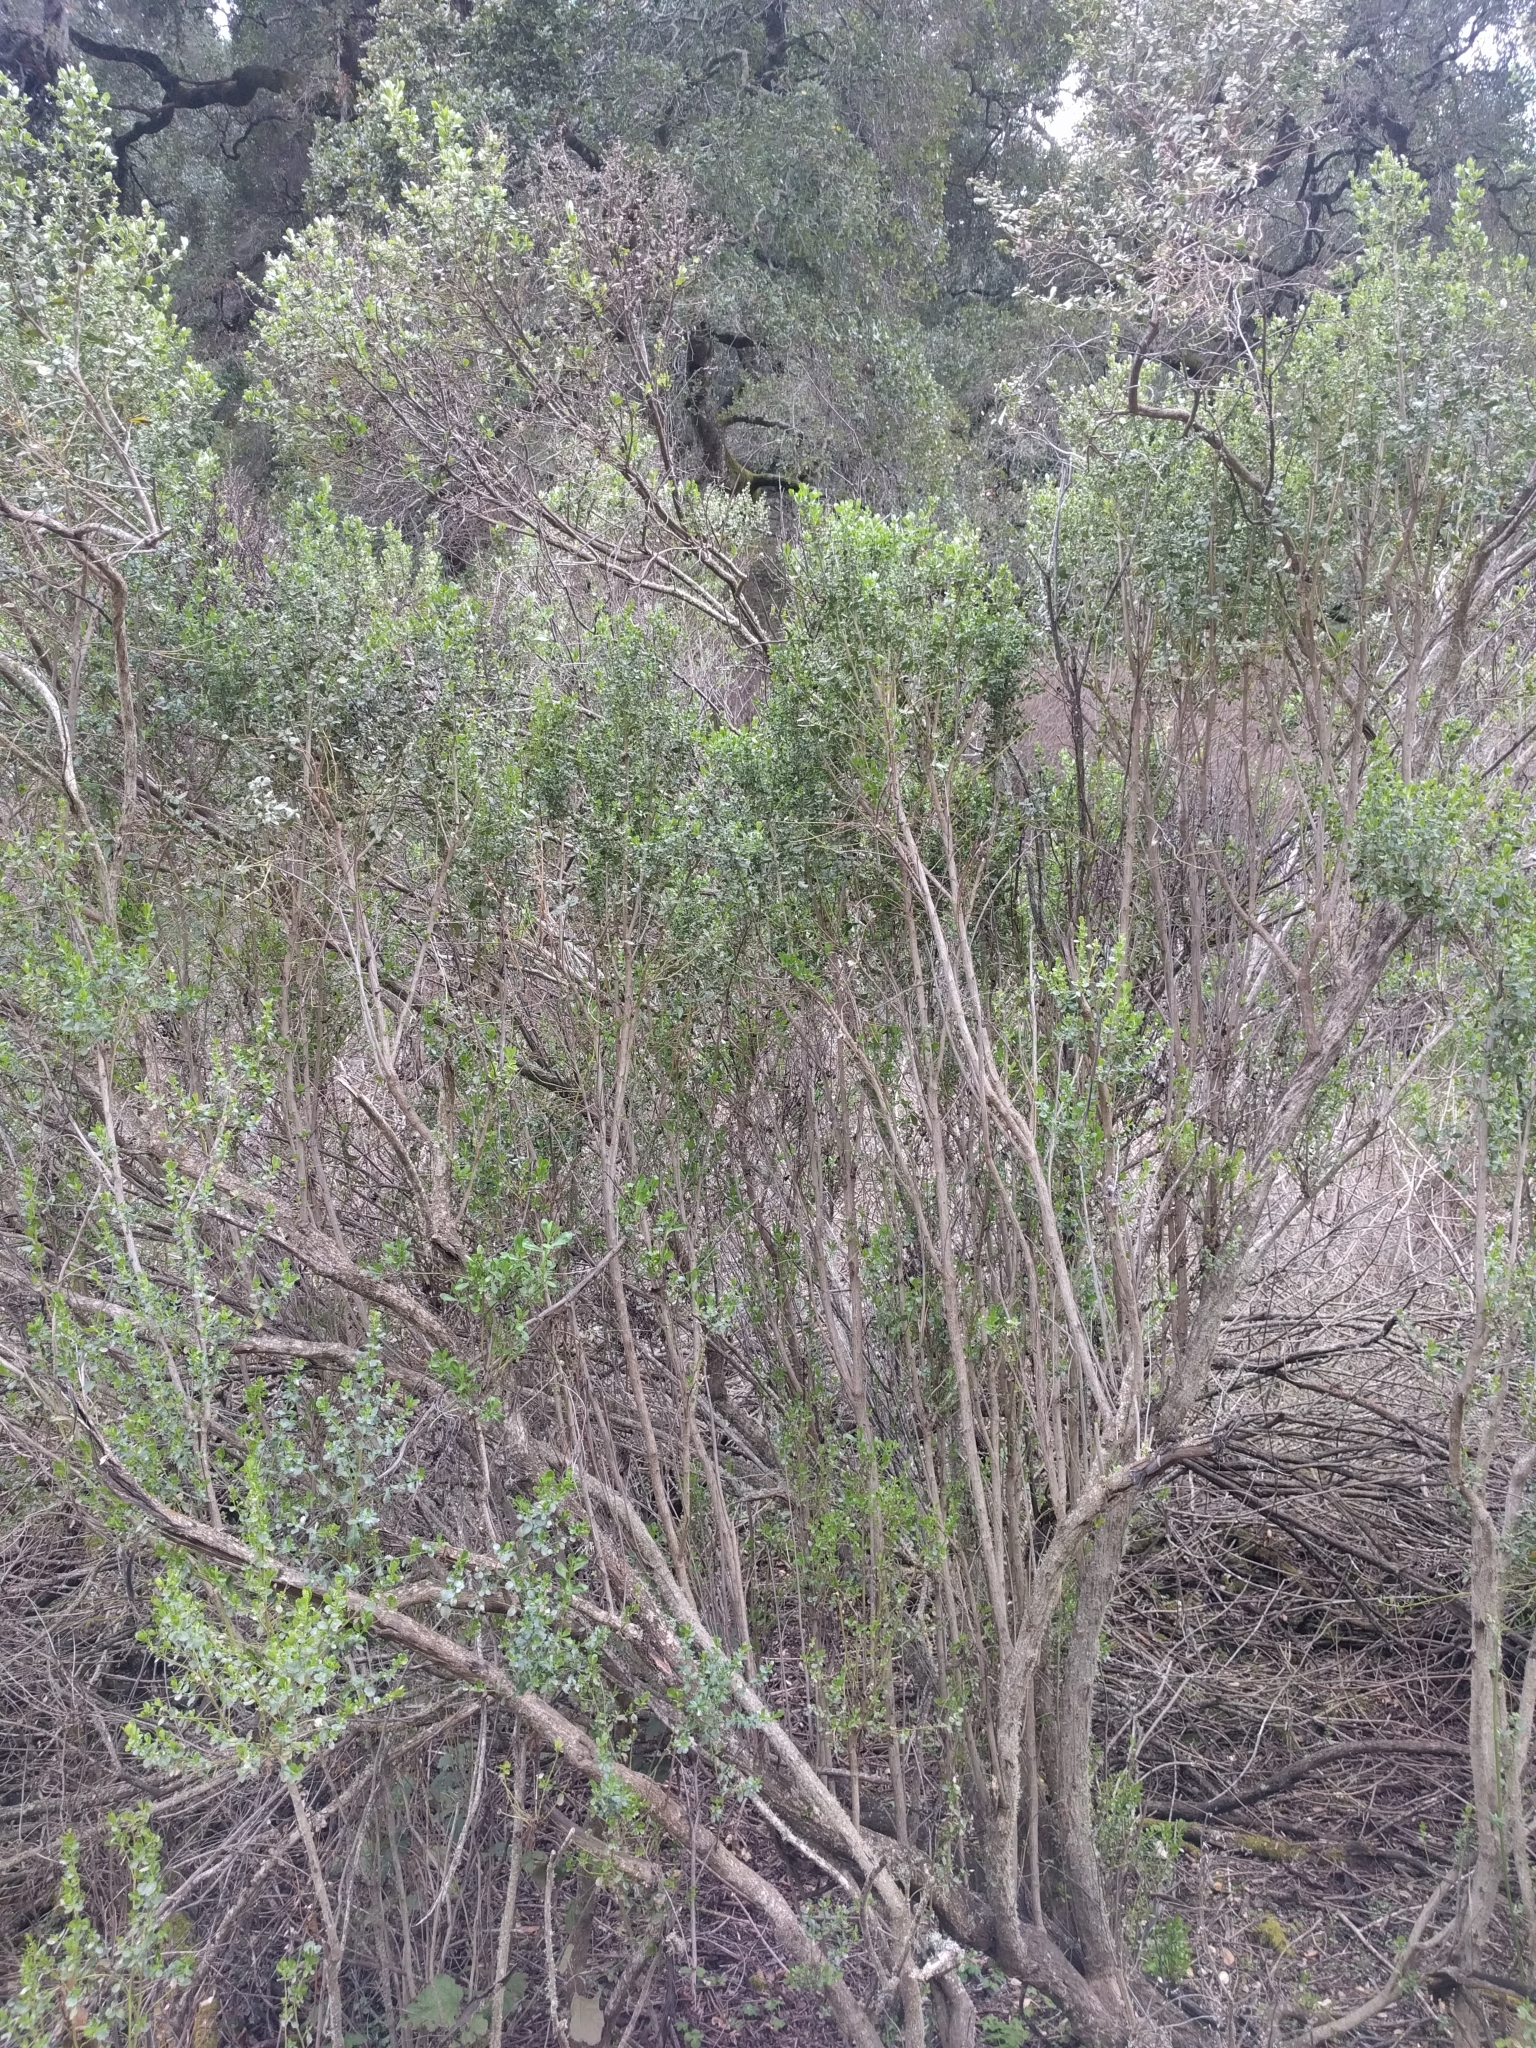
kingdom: Plantae
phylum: Tracheophyta
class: Magnoliopsida
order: Asterales
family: Asteraceae
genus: Baccharis
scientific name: Baccharis pilularis
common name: Coyotebrush
